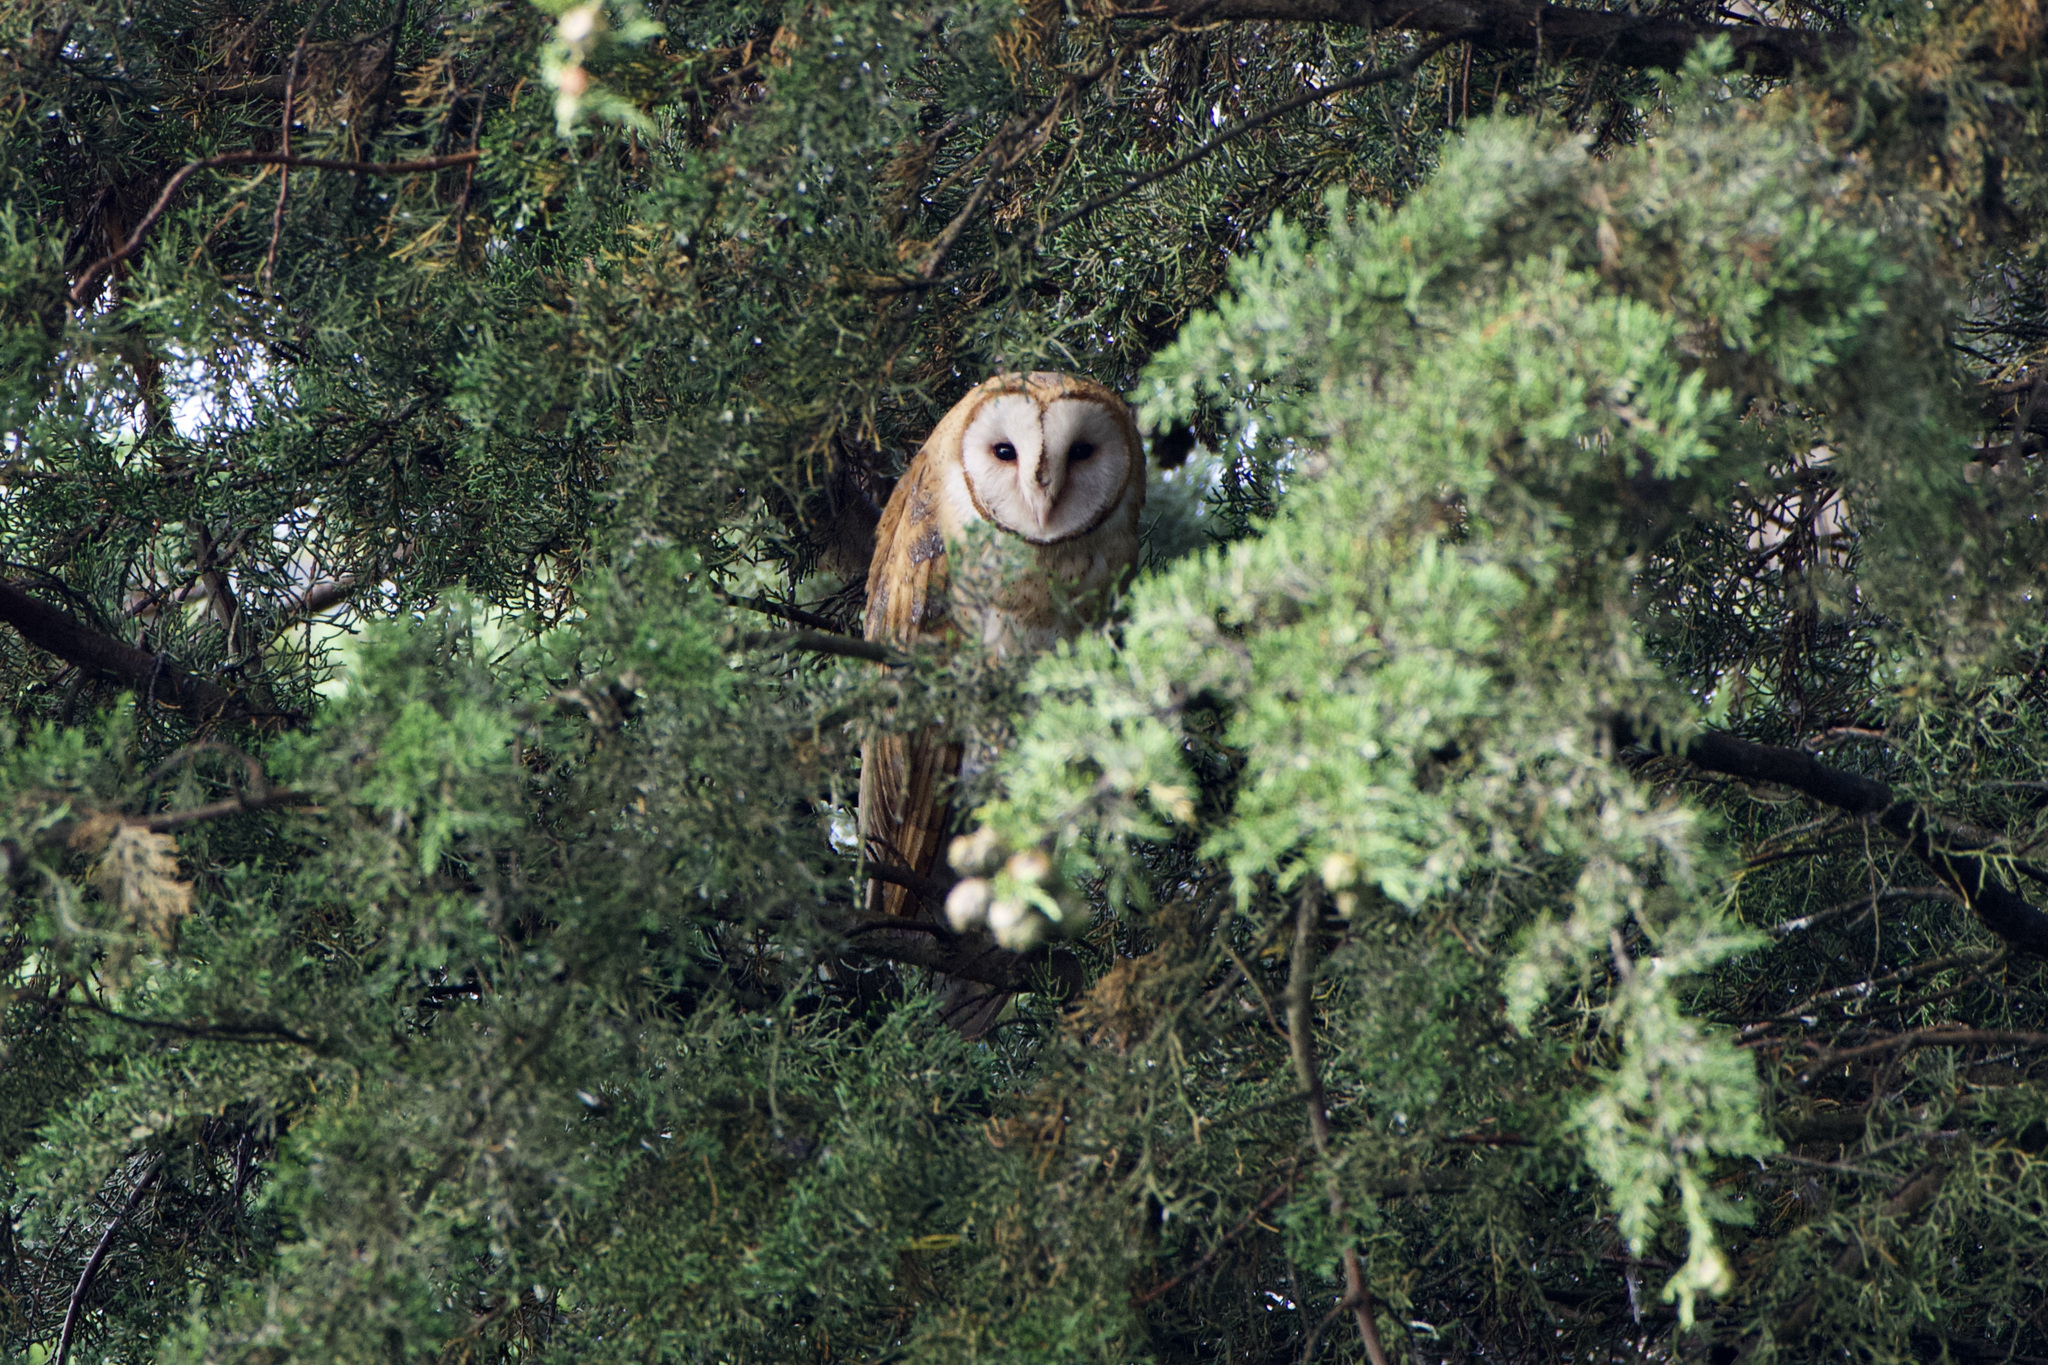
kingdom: Animalia
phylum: Chordata
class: Aves
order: Strigiformes
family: Tytonidae
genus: Tyto
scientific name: Tyto alba
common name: Barn owl
